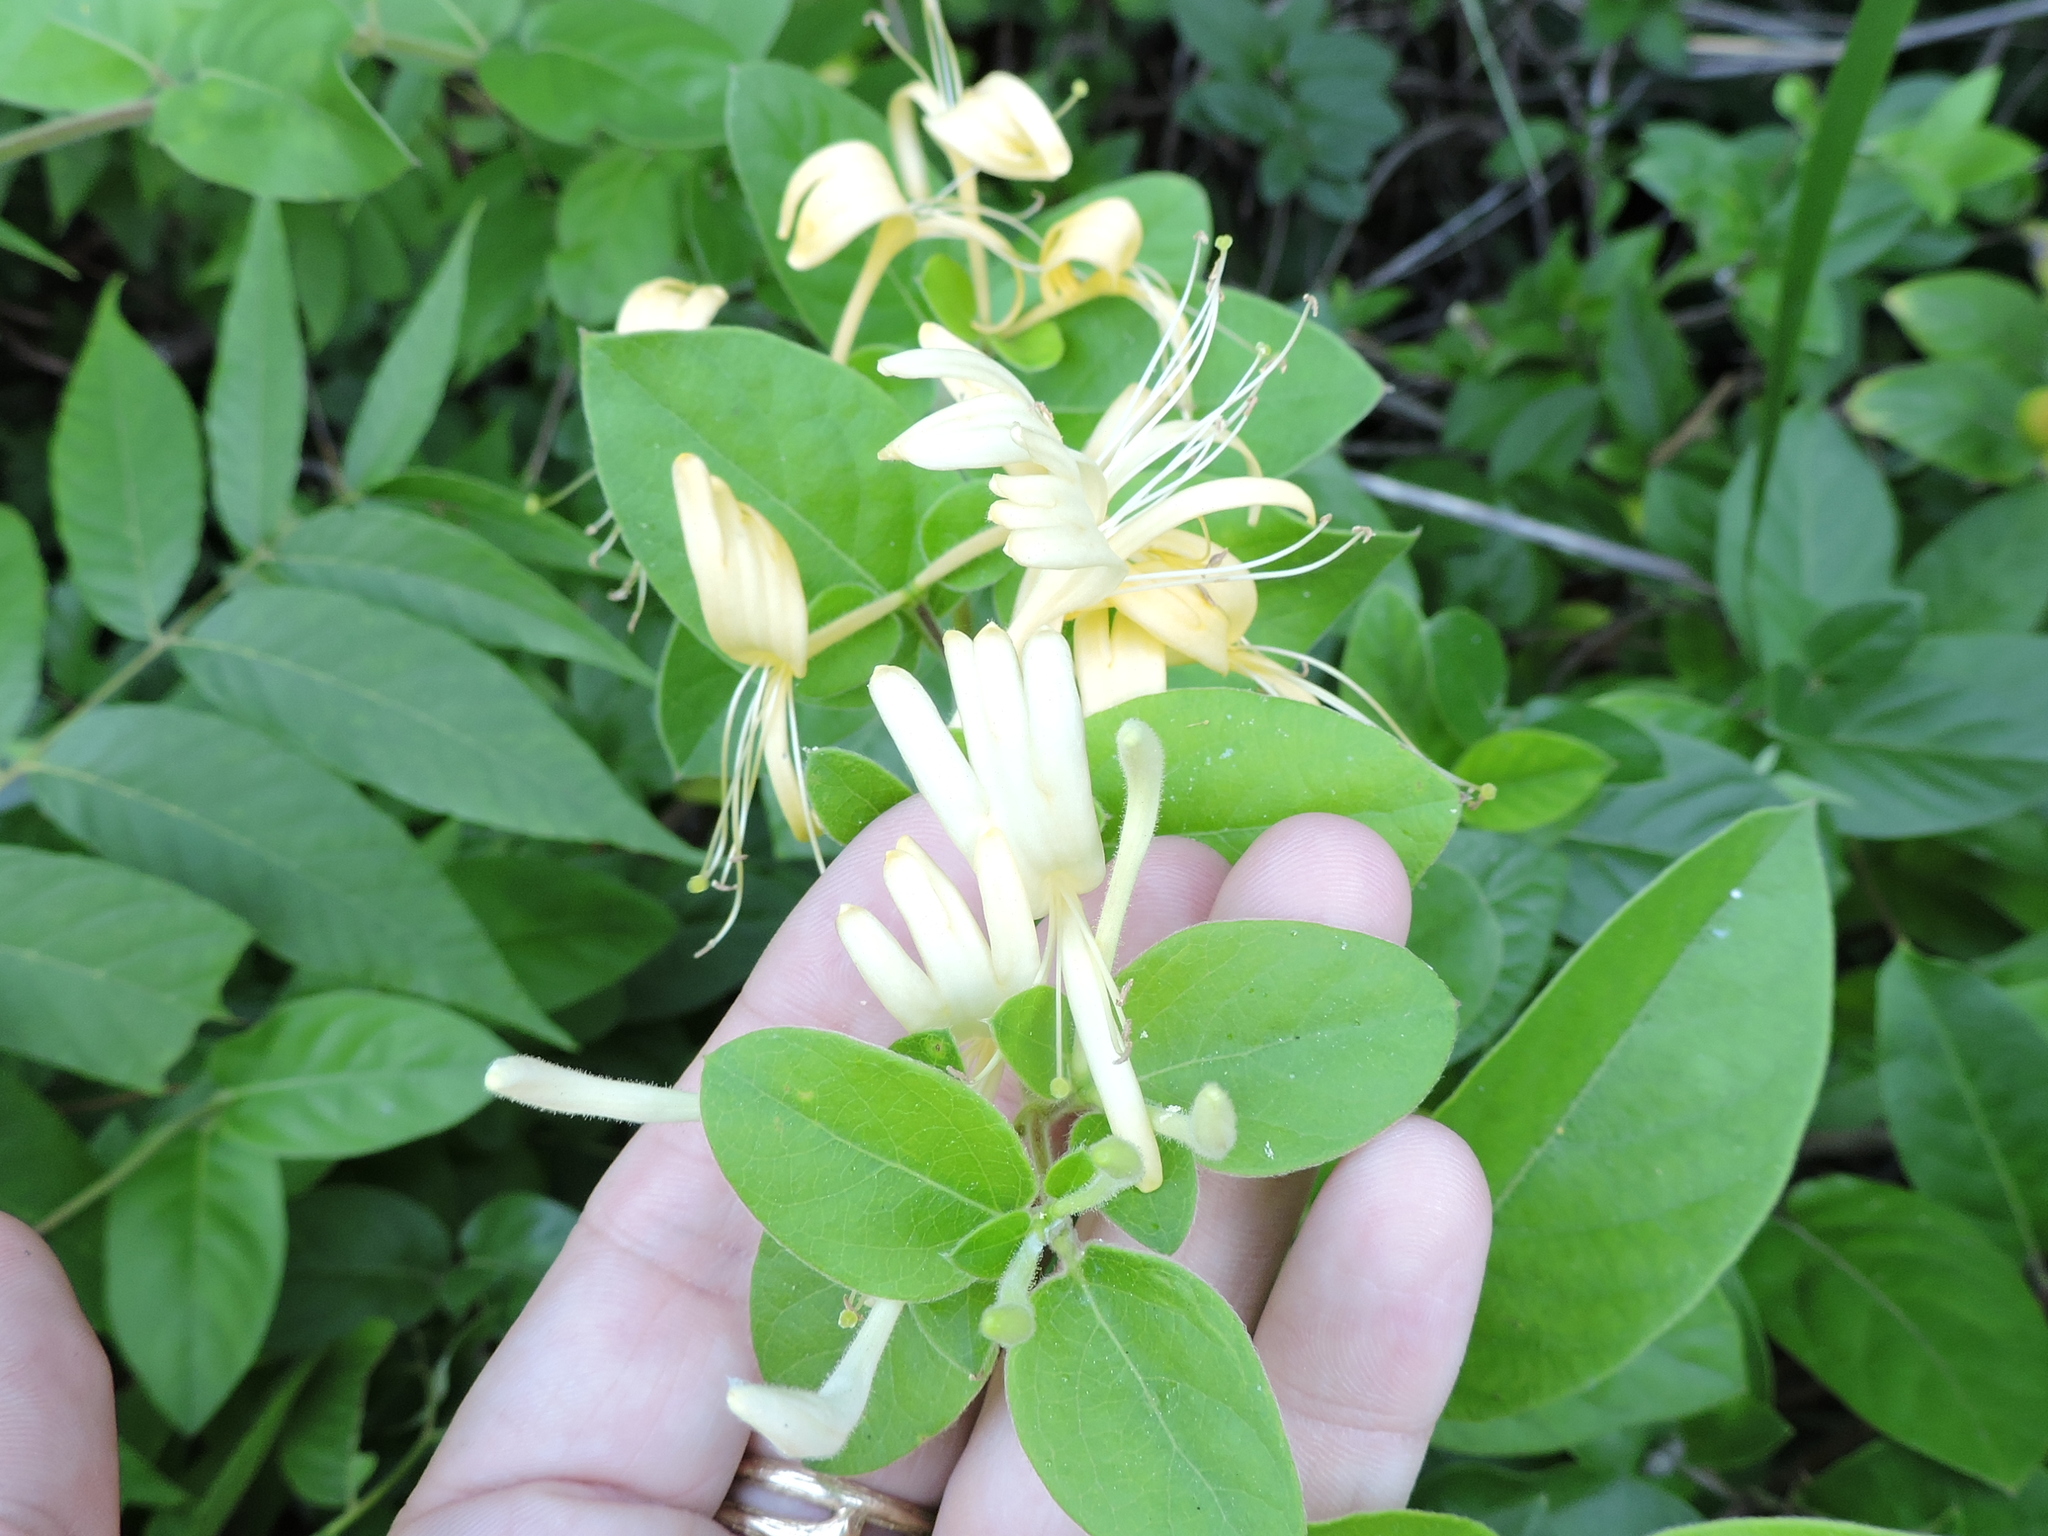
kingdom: Plantae
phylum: Tracheophyta
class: Magnoliopsida
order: Dipsacales
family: Caprifoliaceae
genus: Lonicera
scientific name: Lonicera japonica
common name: Japanese honeysuckle
